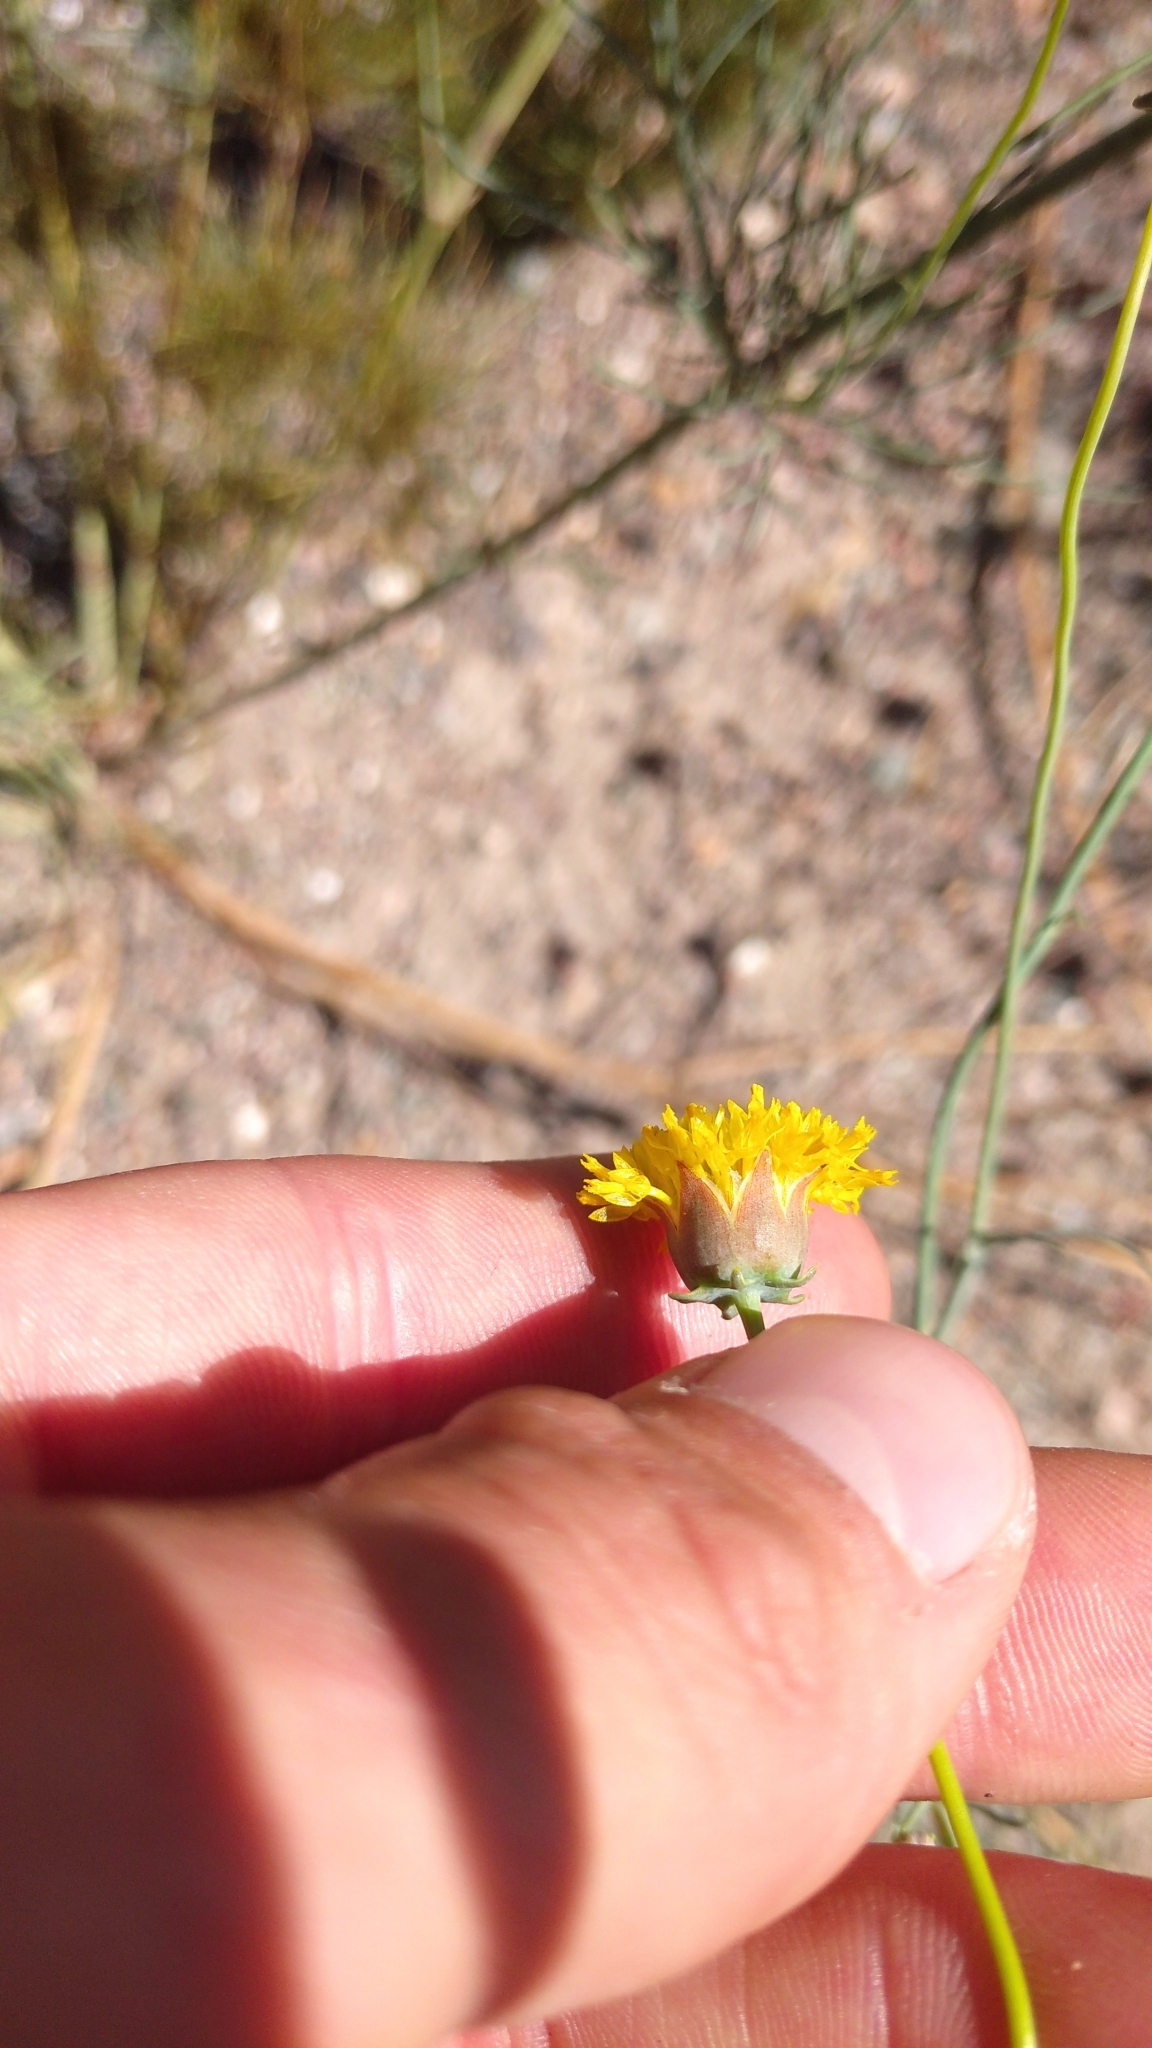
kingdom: Plantae
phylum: Tracheophyta
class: Magnoliopsida
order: Asterales
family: Asteraceae
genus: Thelesperma
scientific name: Thelesperma megapotamicum
